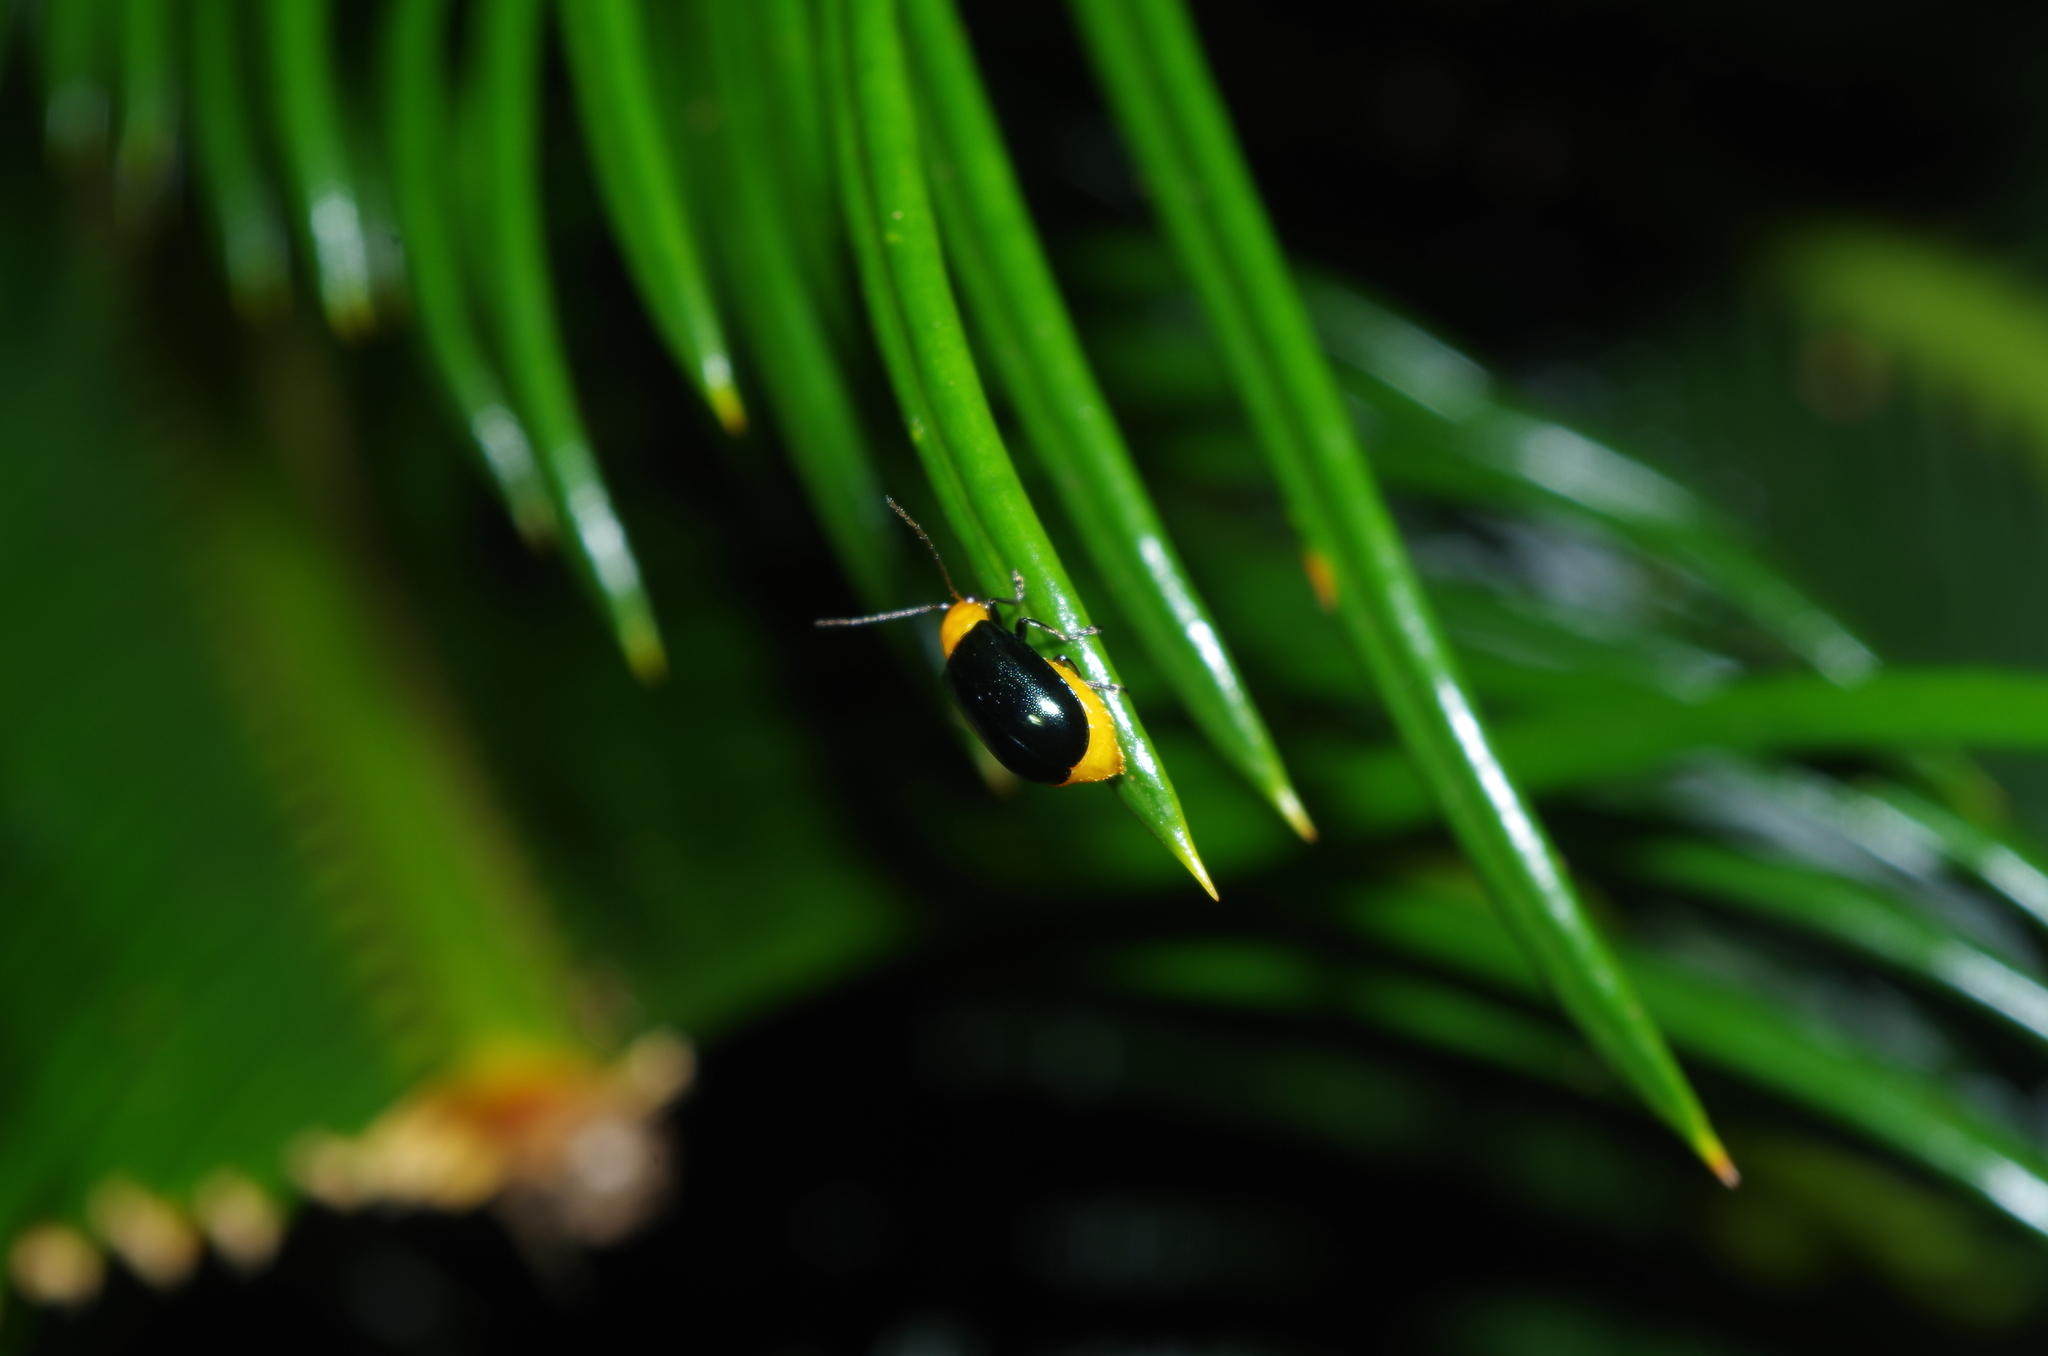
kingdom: Animalia
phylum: Arthropoda
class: Insecta
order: Coleoptera
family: Chrysomelidae
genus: Aulacophora
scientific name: Aulacophora nigripennis
